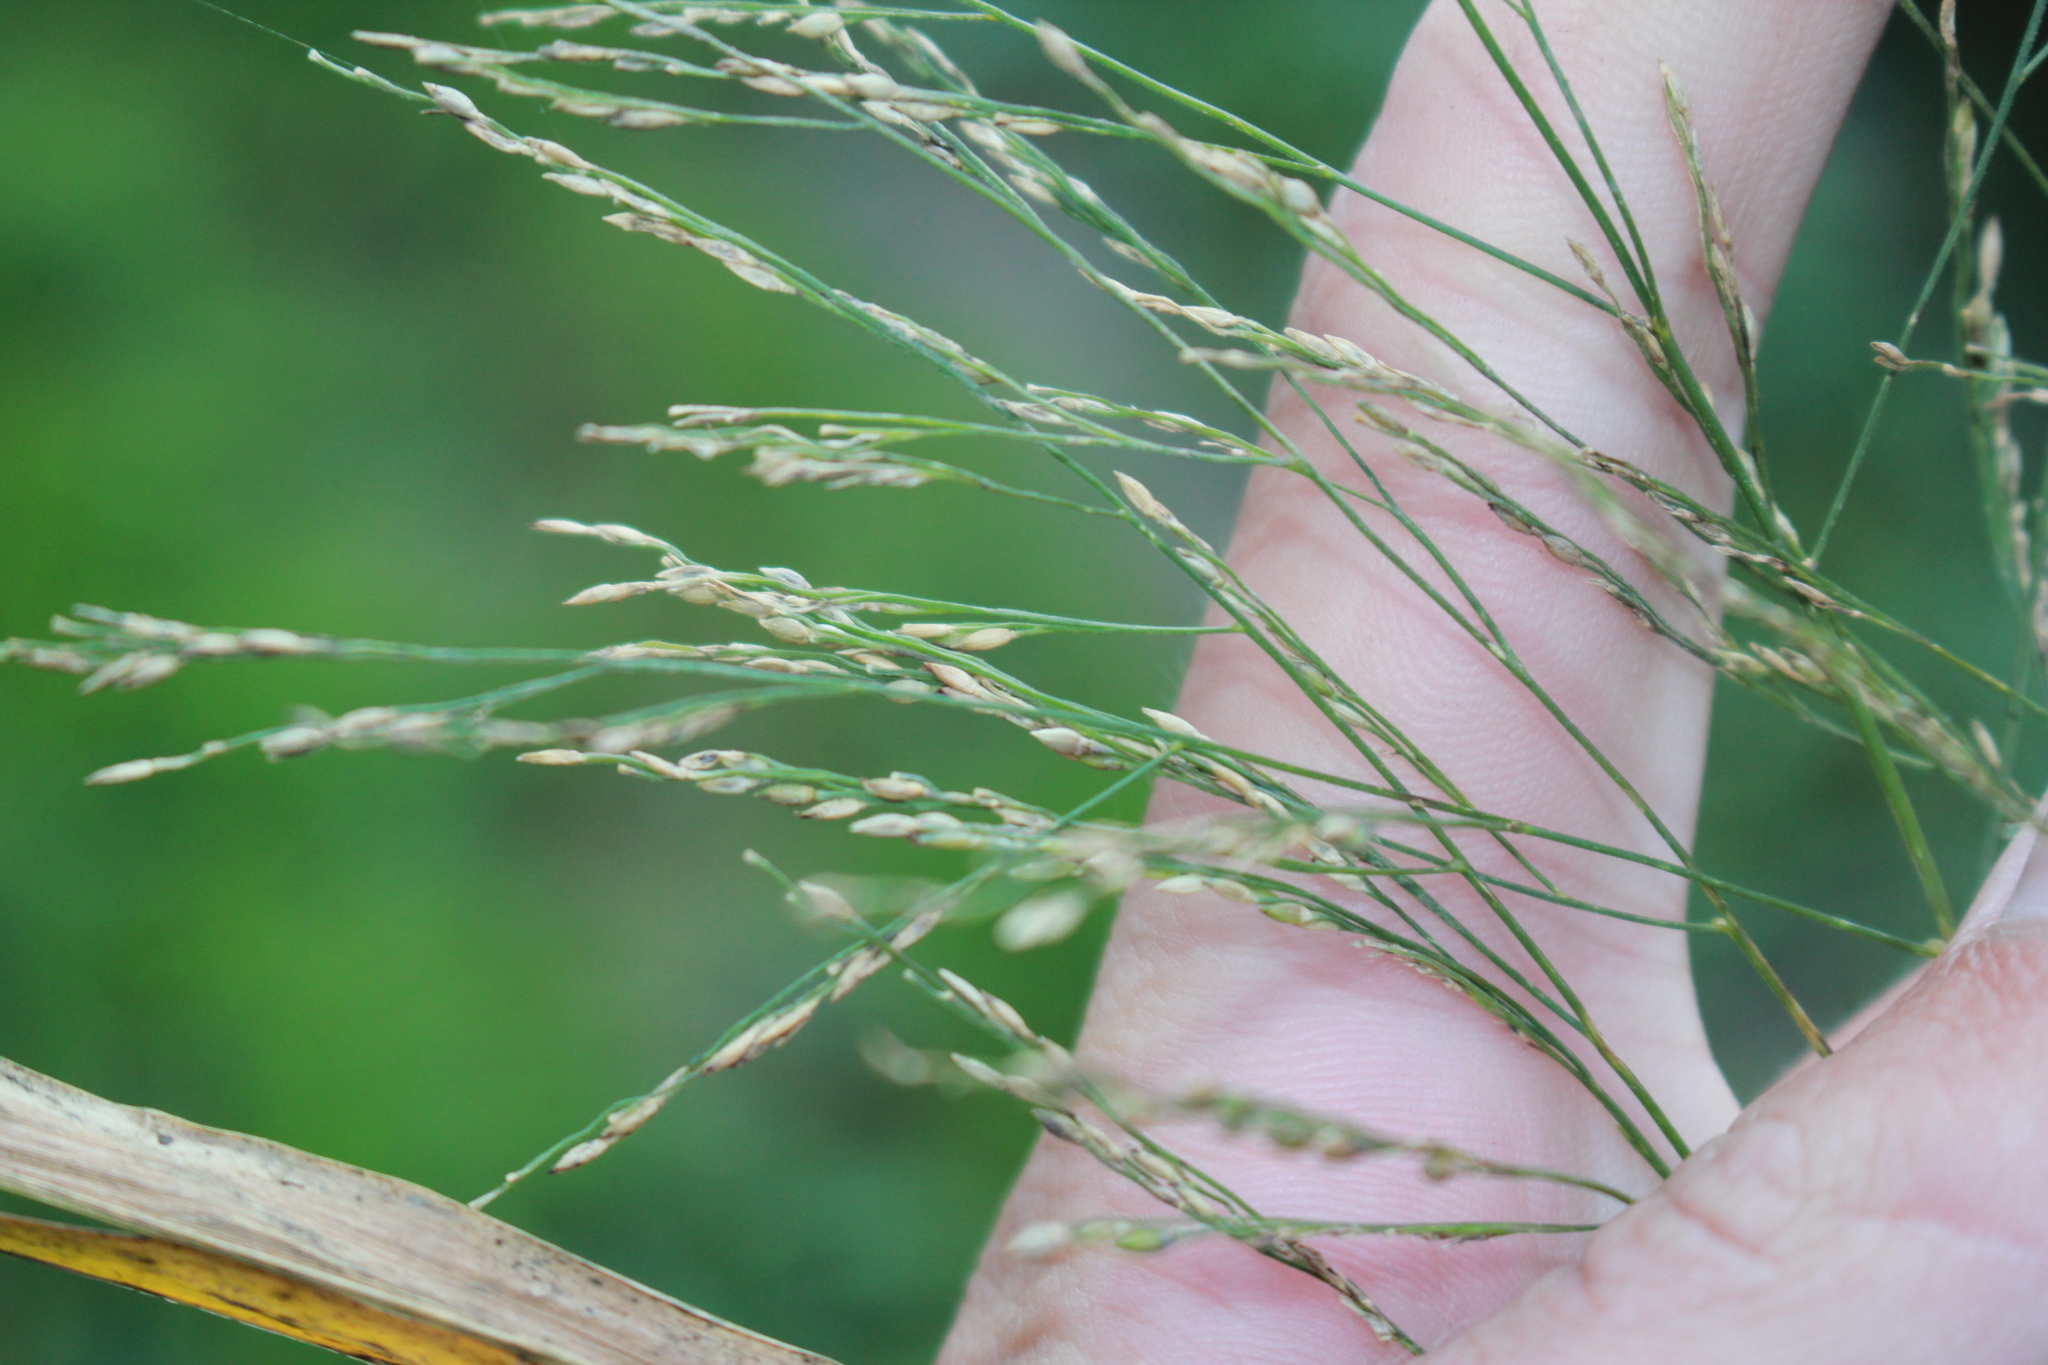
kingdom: Plantae
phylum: Tracheophyta
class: Liliopsida
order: Poales
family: Poaceae
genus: Panicum
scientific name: Panicum dichotomiflorum
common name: Autumn millet
